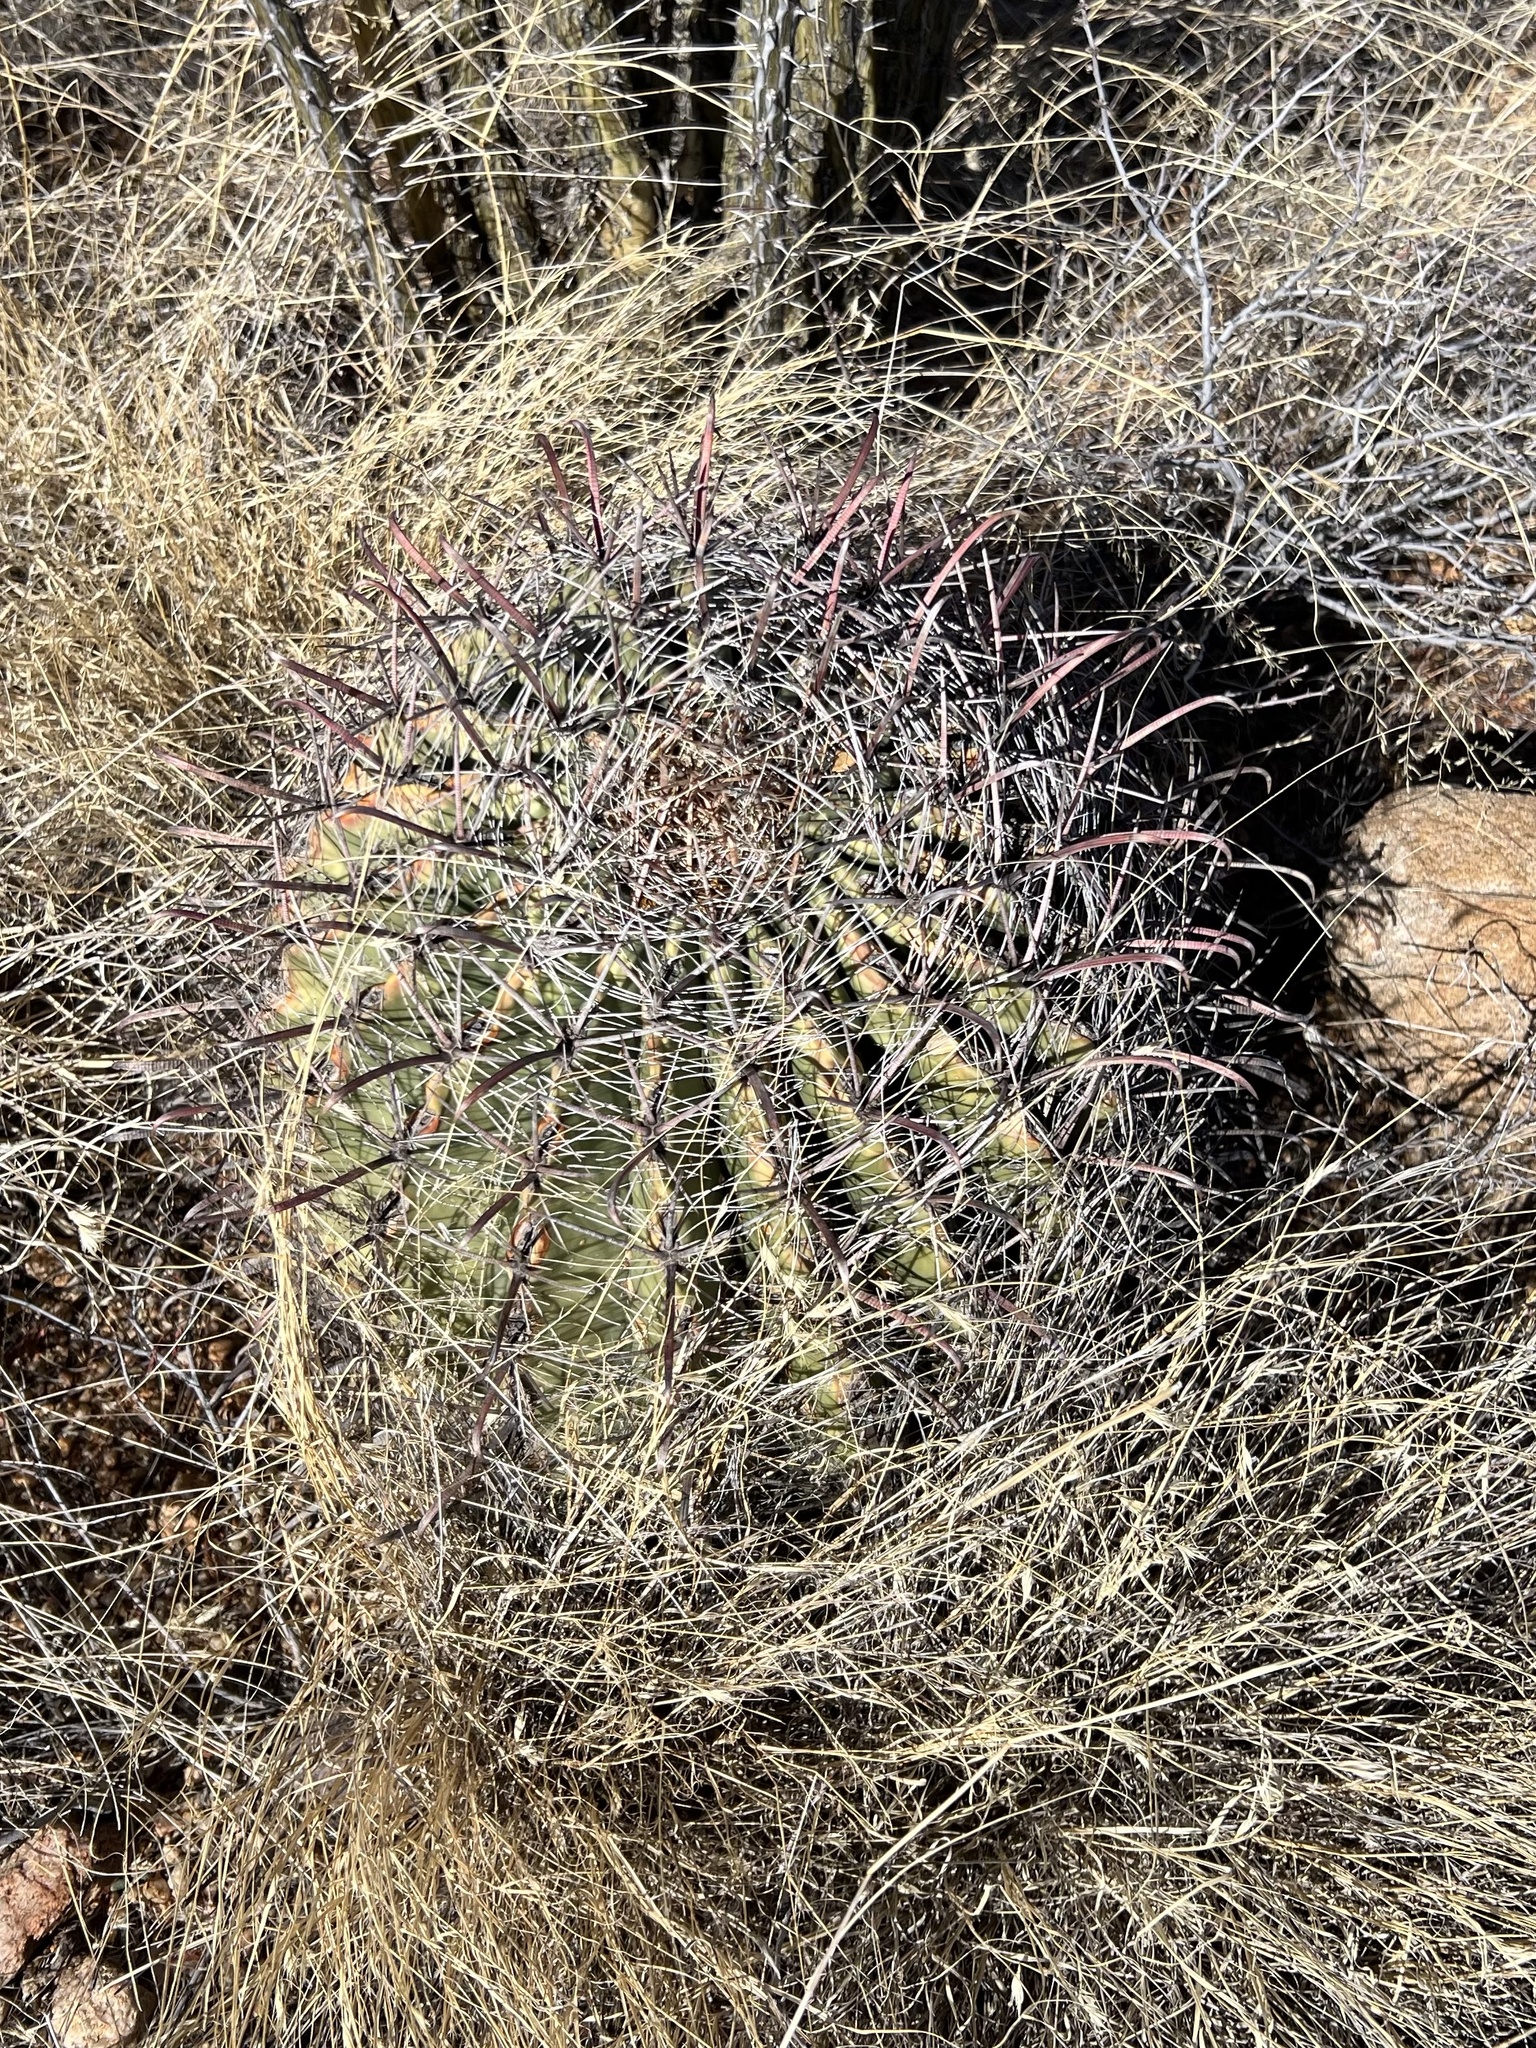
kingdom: Plantae
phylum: Tracheophyta
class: Magnoliopsida
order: Caryophyllales
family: Cactaceae
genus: Ferocactus
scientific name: Ferocactus wislizeni
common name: Candy barrel cactus
